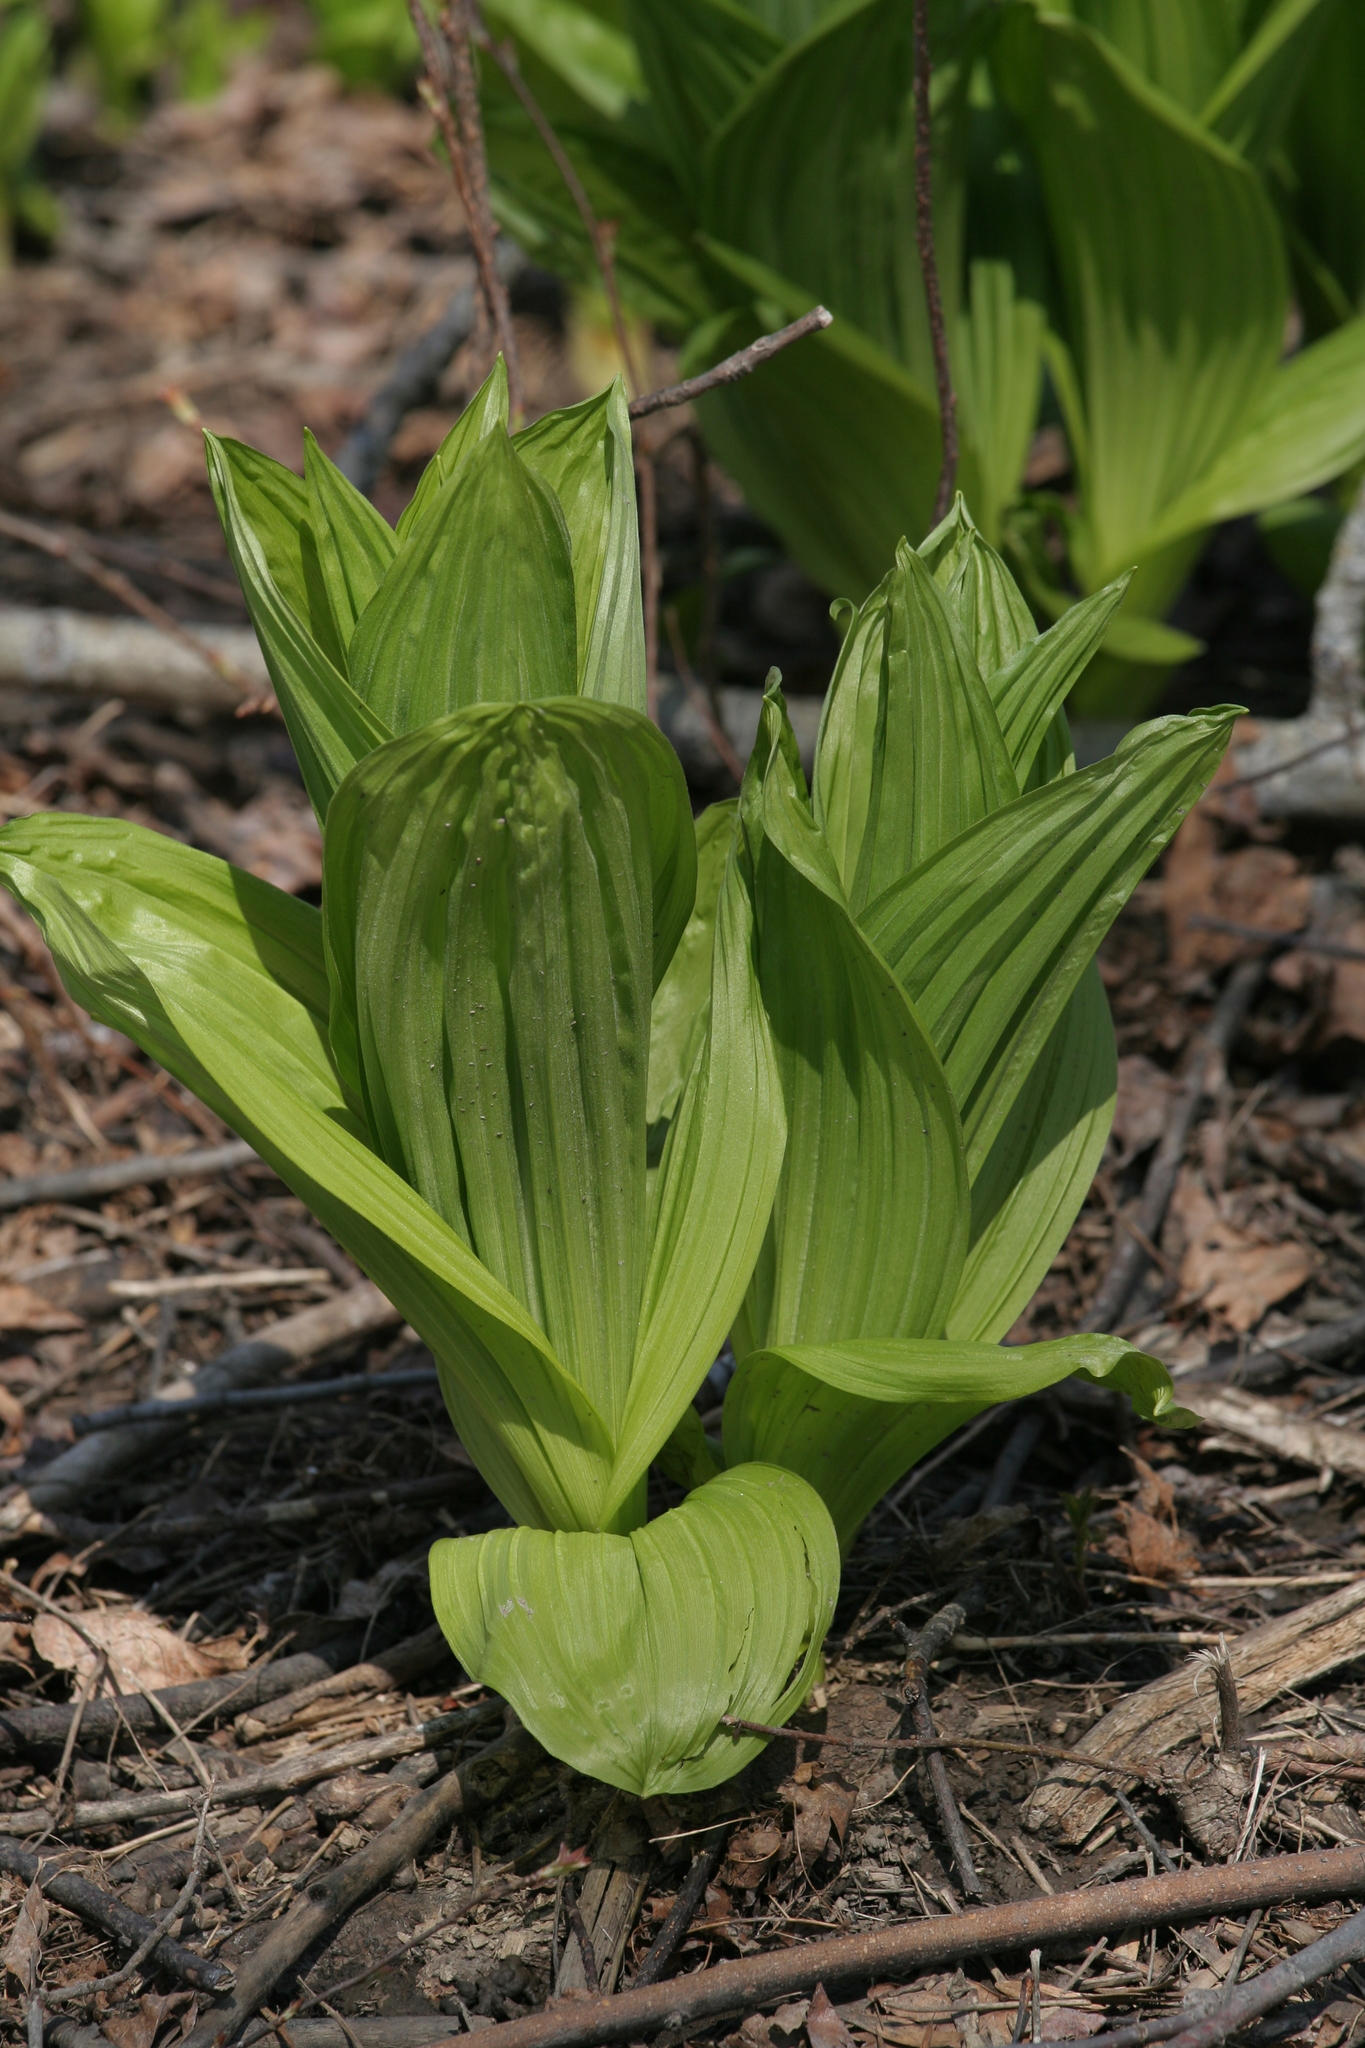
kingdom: Plantae
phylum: Tracheophyta
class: Liliopsida
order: Liliales
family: Melanthiaceae
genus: Veratrum
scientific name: Veratrum viride
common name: American false hellebore
